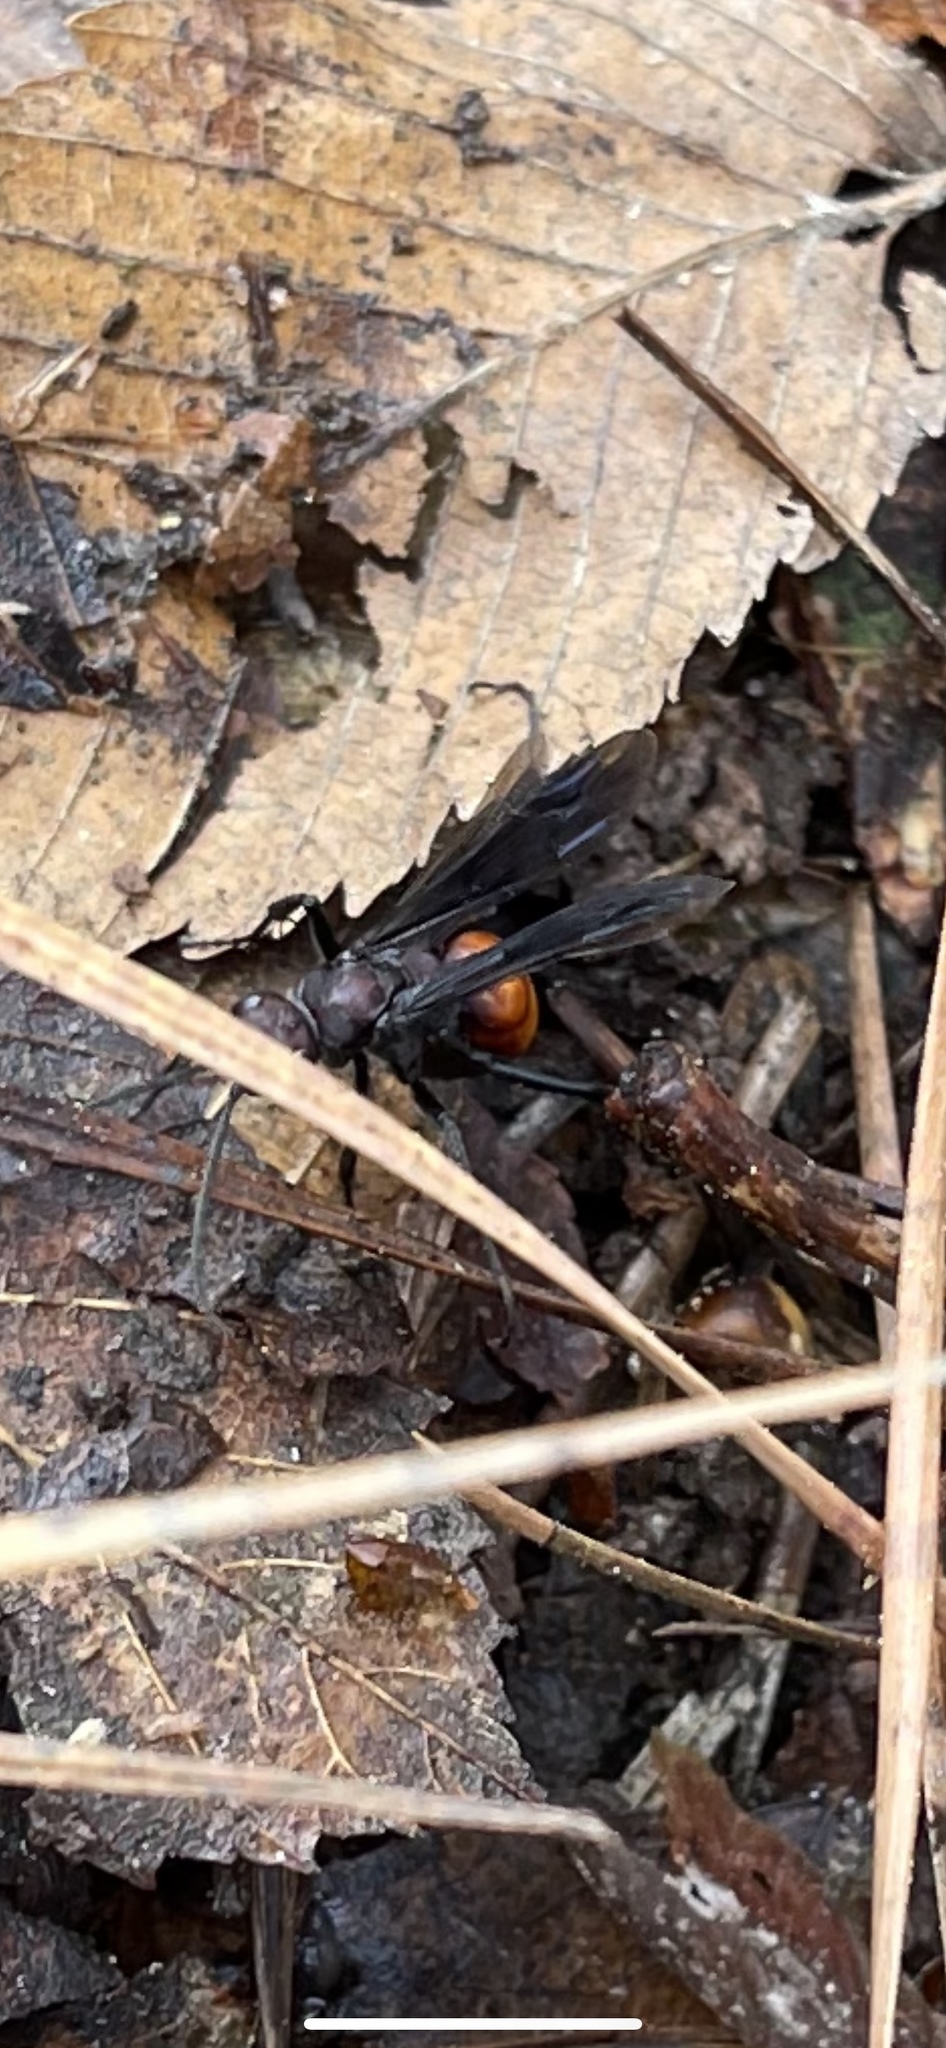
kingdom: Animalia
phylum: Arthropoda
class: Insecta
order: Hymenoptera
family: Pompilidae
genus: Priocnemis
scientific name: Priocnemis nigripes
